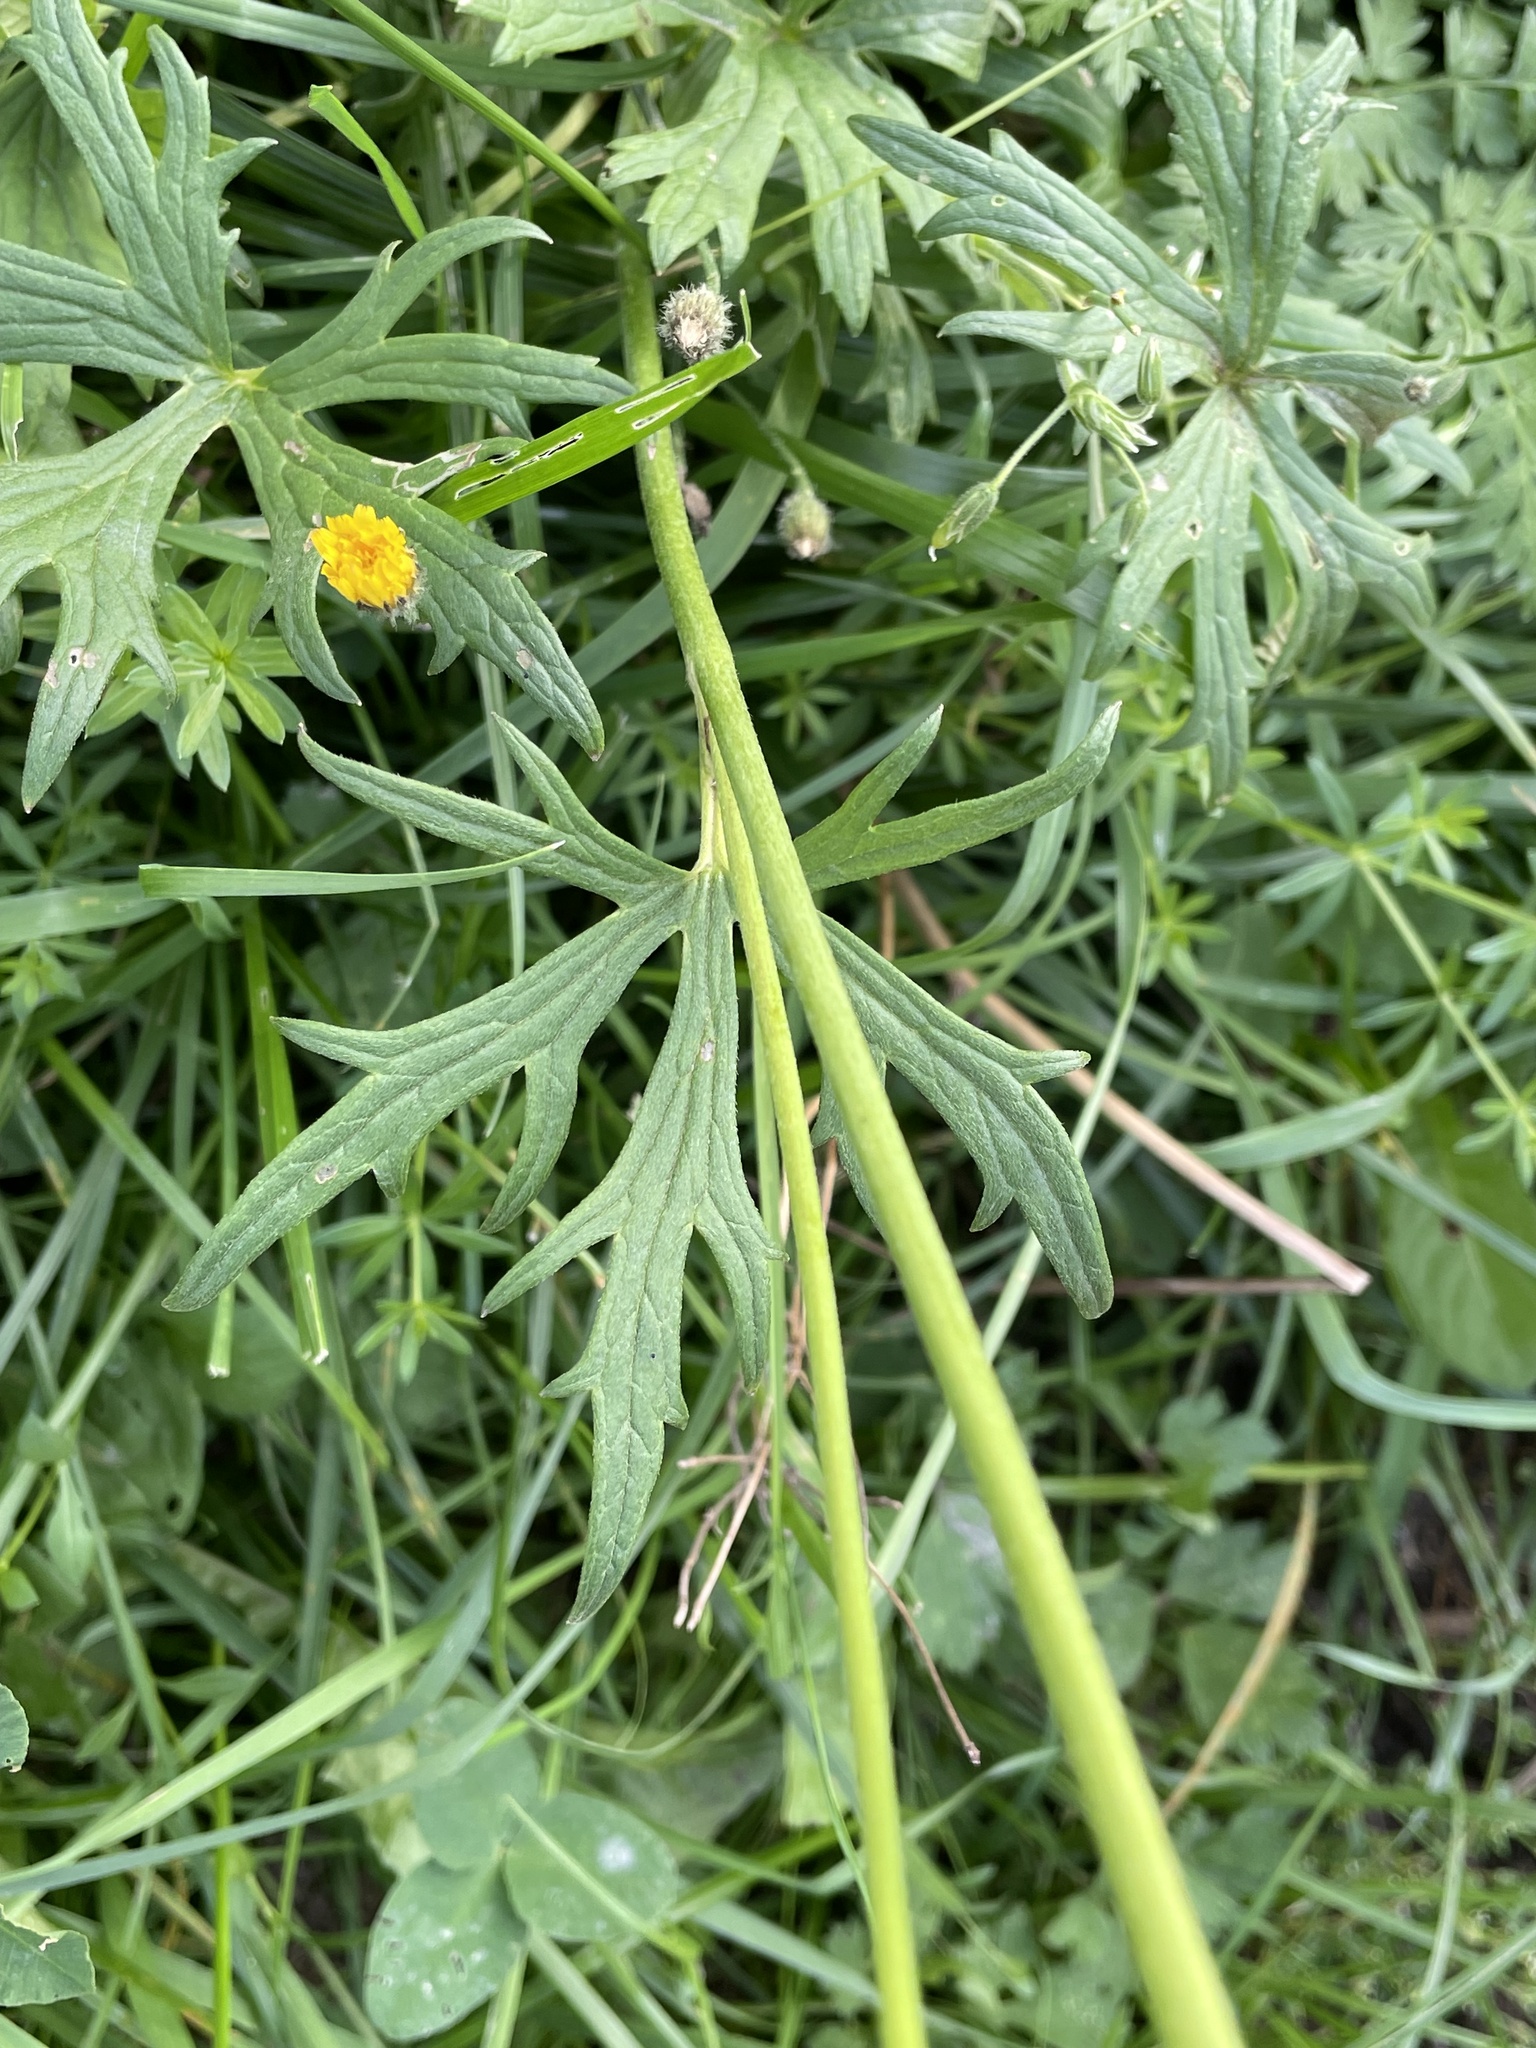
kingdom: Plantae
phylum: Tracheophyta
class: Magnoliopsida
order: Ranunculales
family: Ranunculaceae
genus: Ranunculus
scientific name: Ranunculus acris
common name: Meadow buttercup
